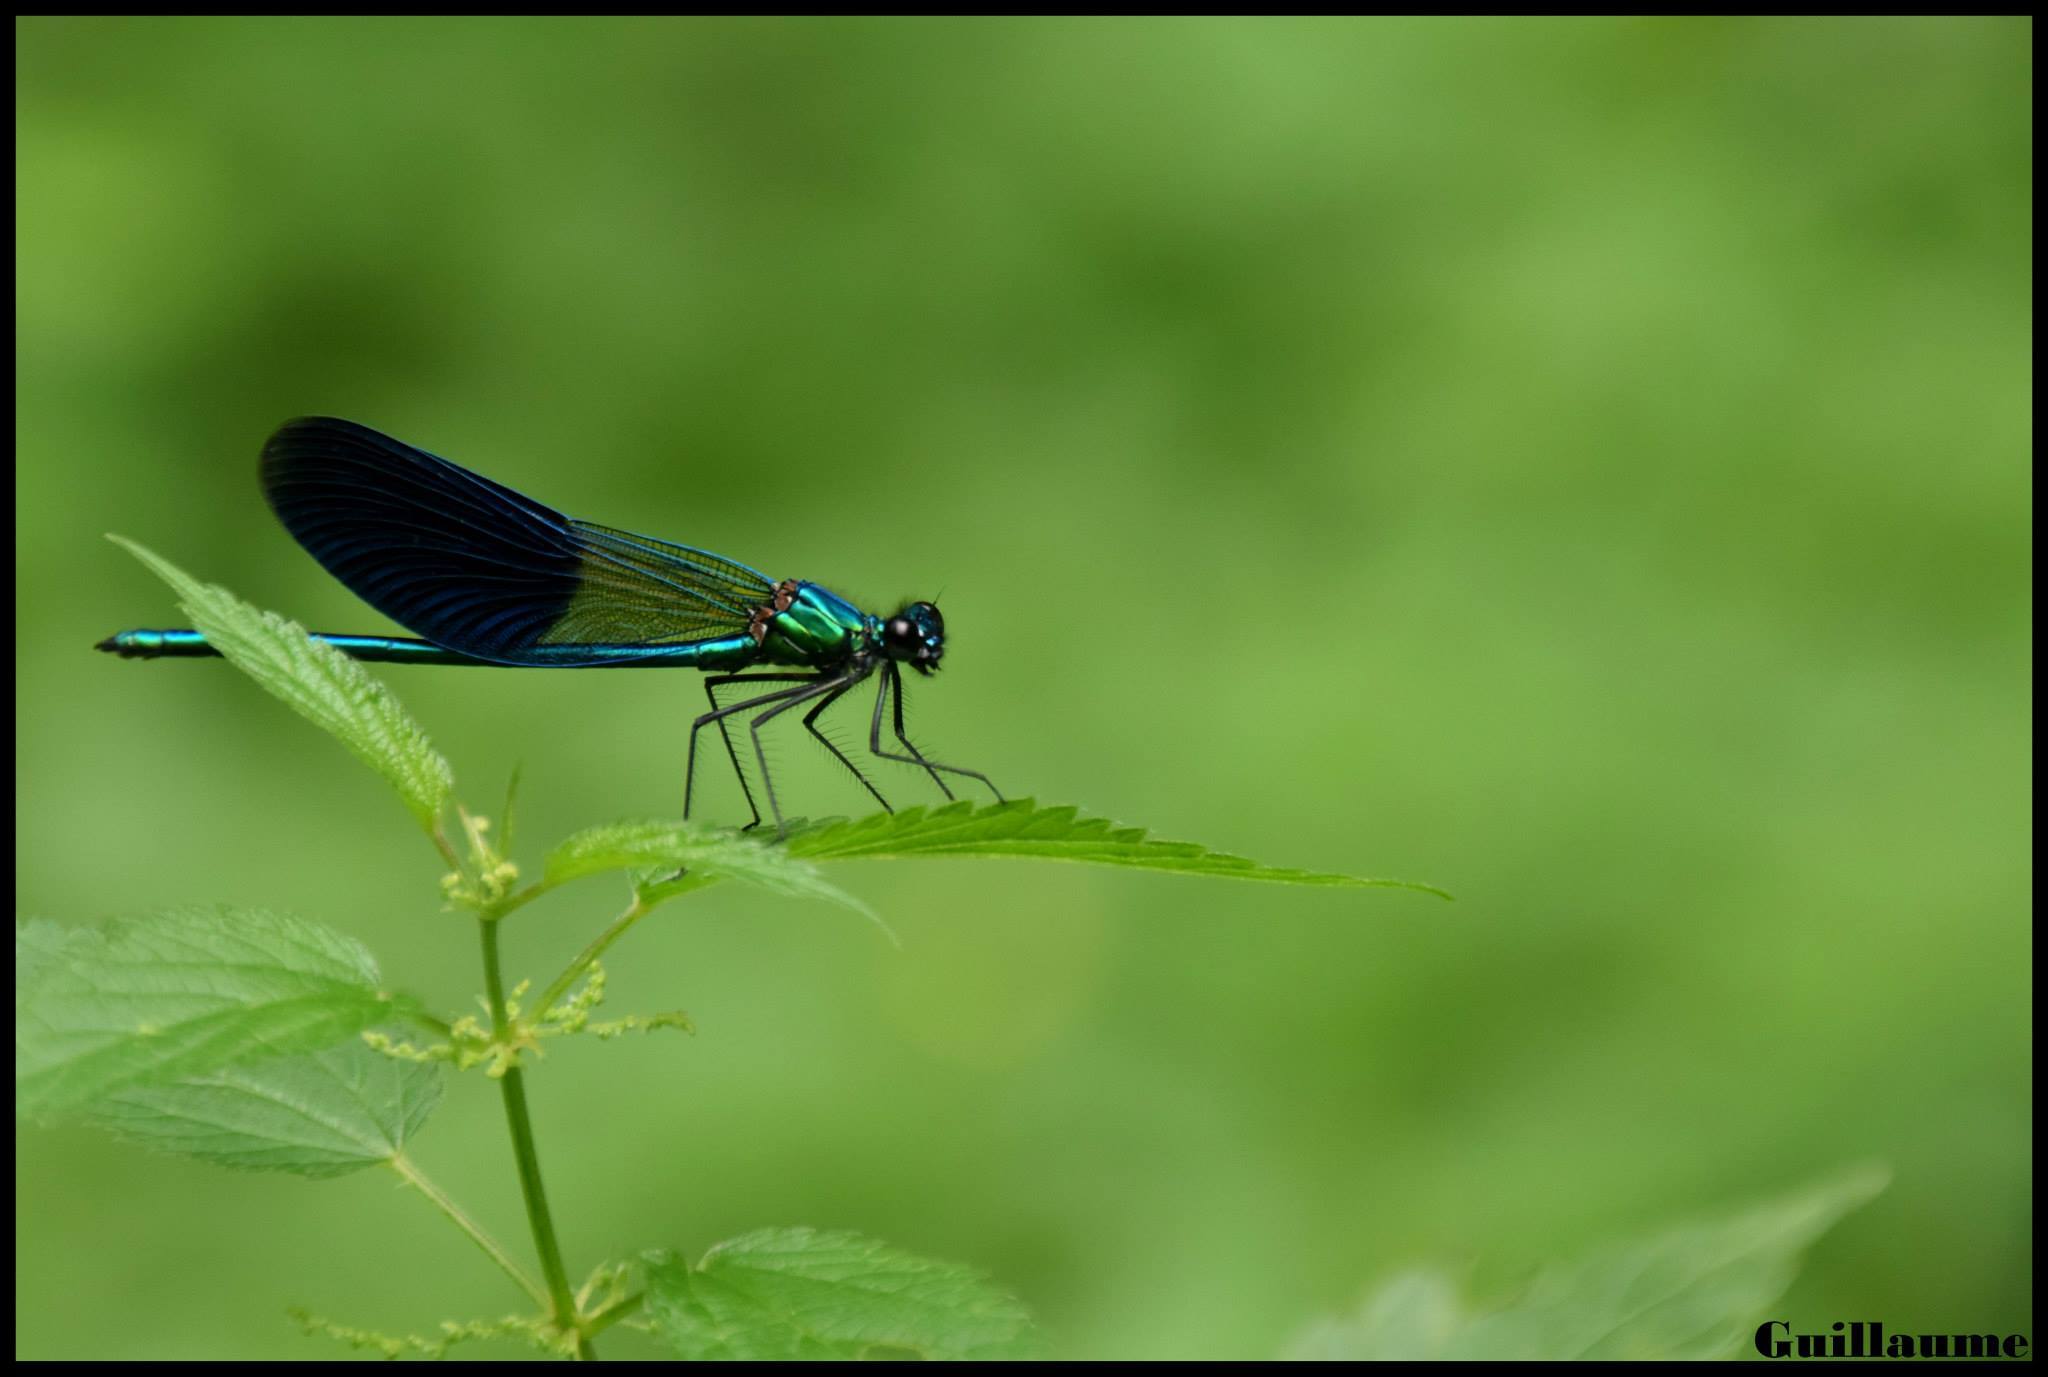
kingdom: Animalia
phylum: Arthropoda
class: Insecta
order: Odonata
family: Calopterygidae
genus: Calopteryx
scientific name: Calopteryx xanthostoma
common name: Western demoiselle
